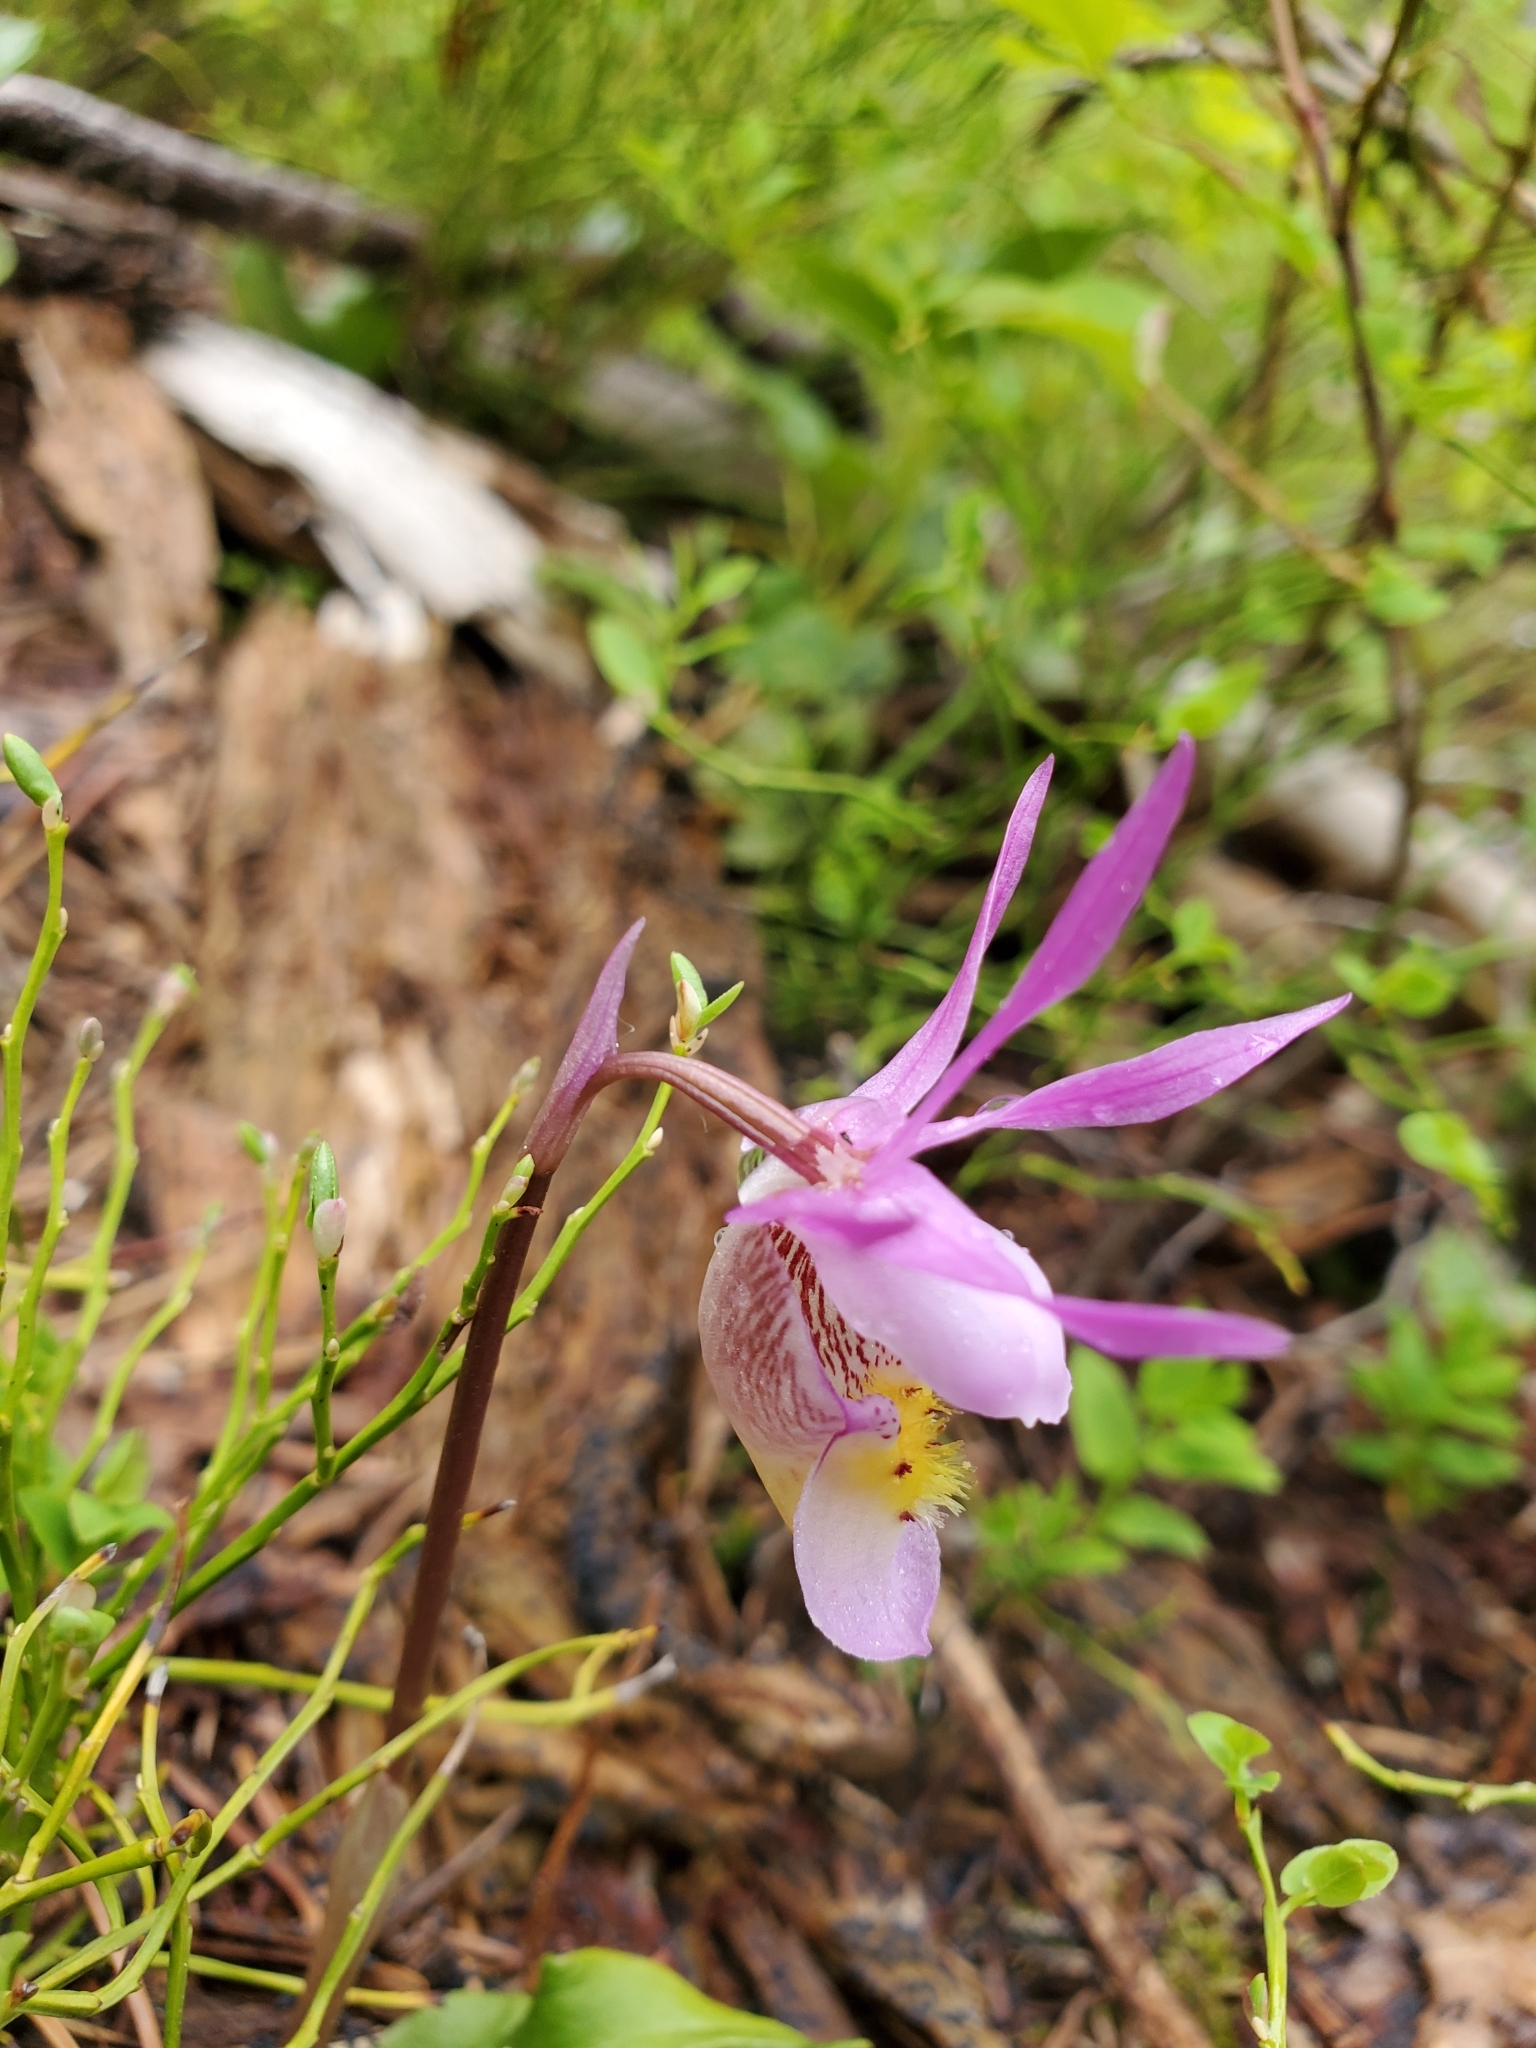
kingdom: Plantae
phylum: Tracheophyta
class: Liliopsida
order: Asparagales
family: Orchidaceae
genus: Calypso
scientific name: Calypso bulbosa
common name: Calypso
